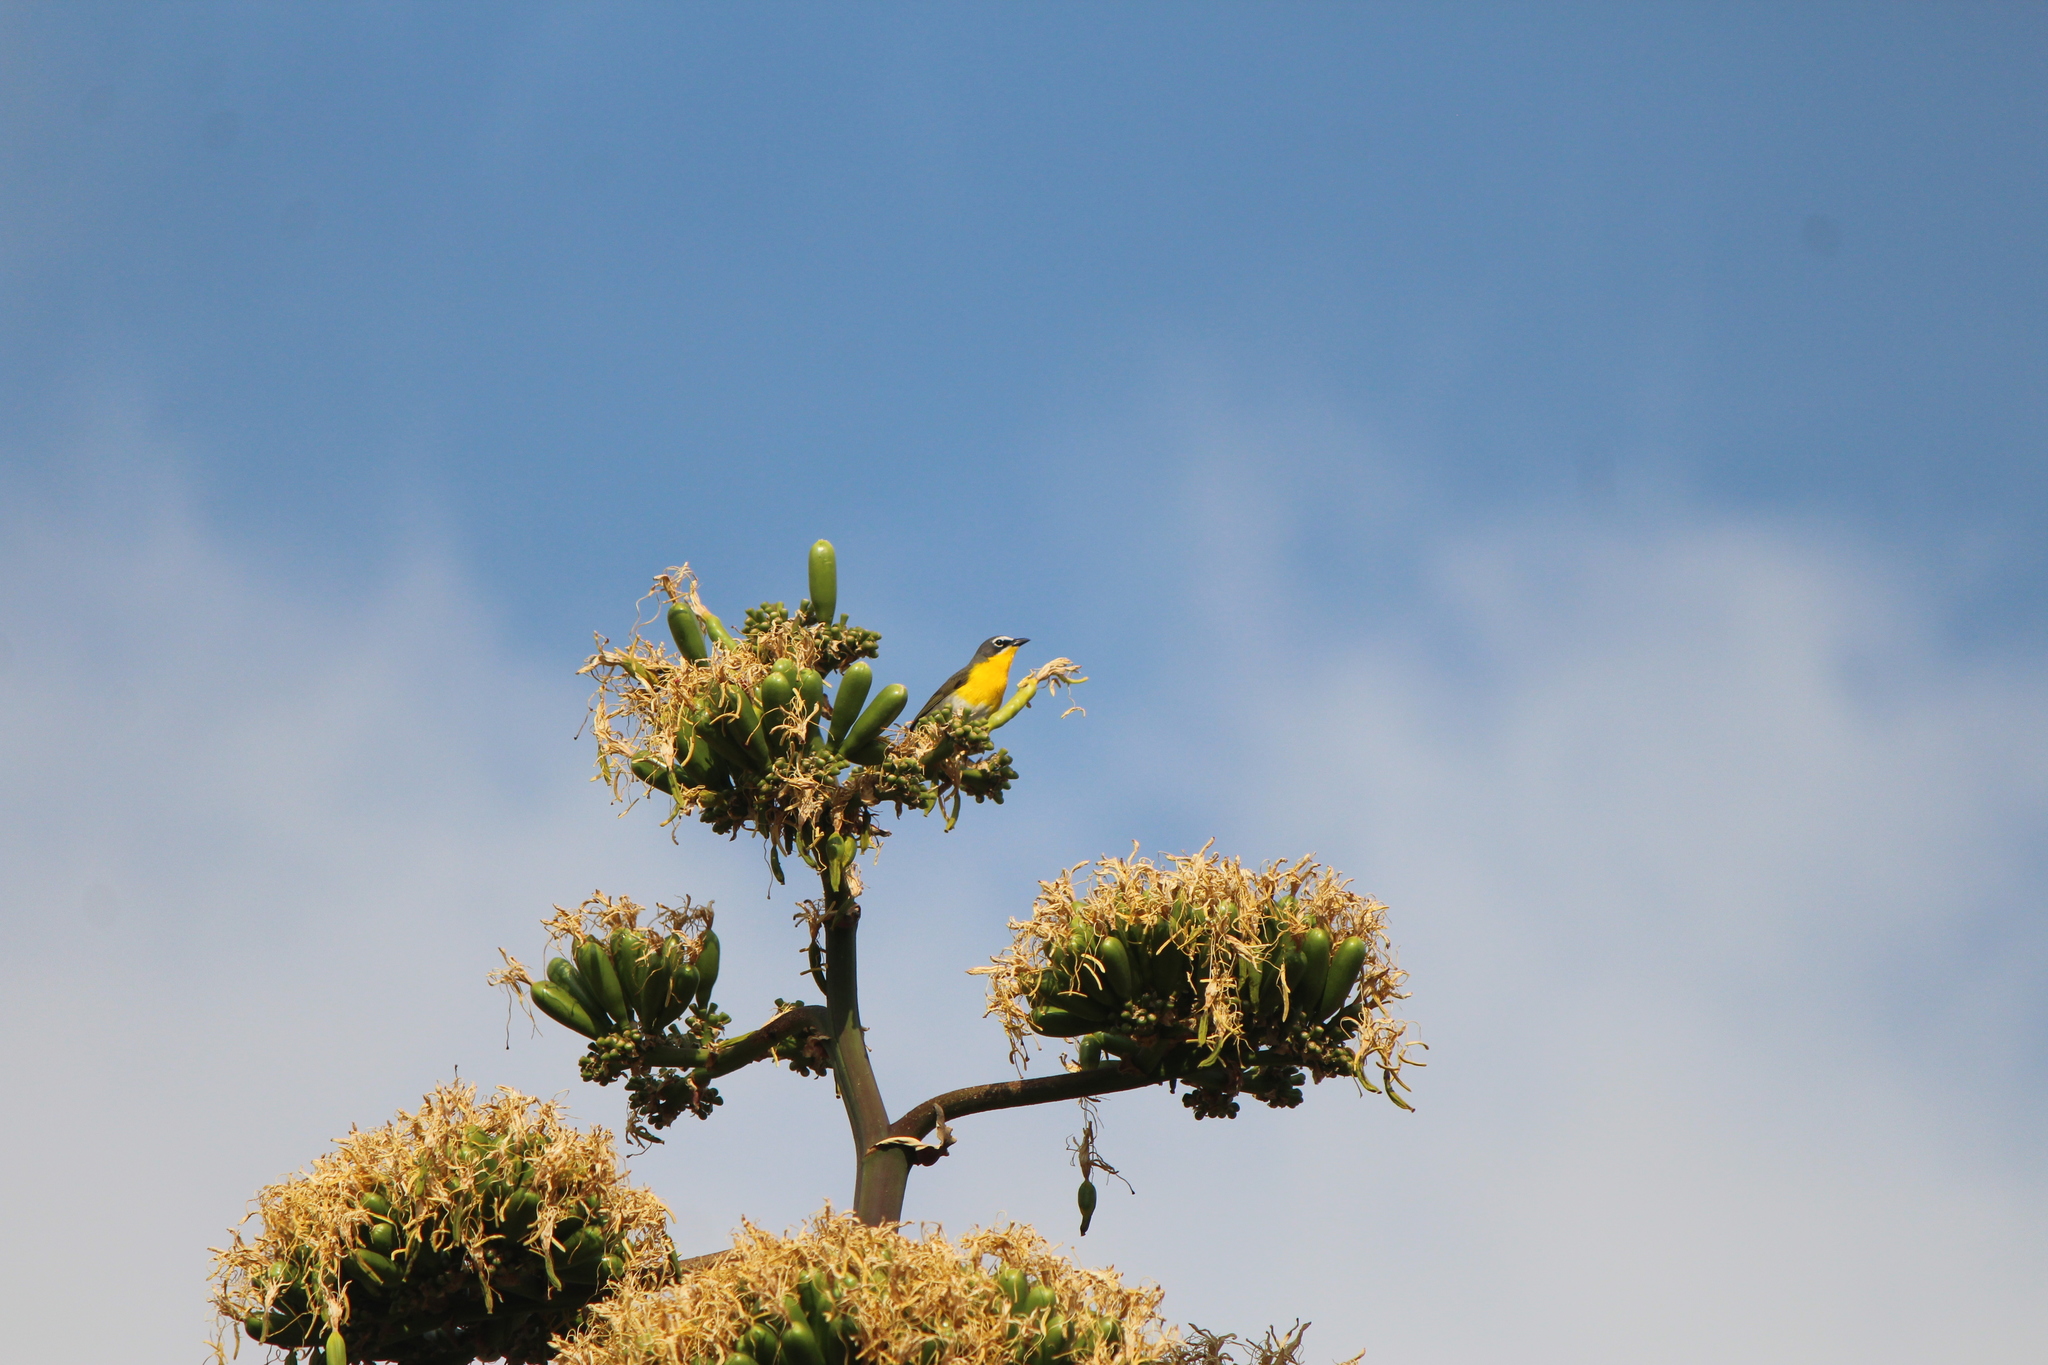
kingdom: Animalia
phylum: Chordata
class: Aves
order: Passeriformes
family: Parulidae
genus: Icteria
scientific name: Icteria virens
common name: Yellow-breasted chat
